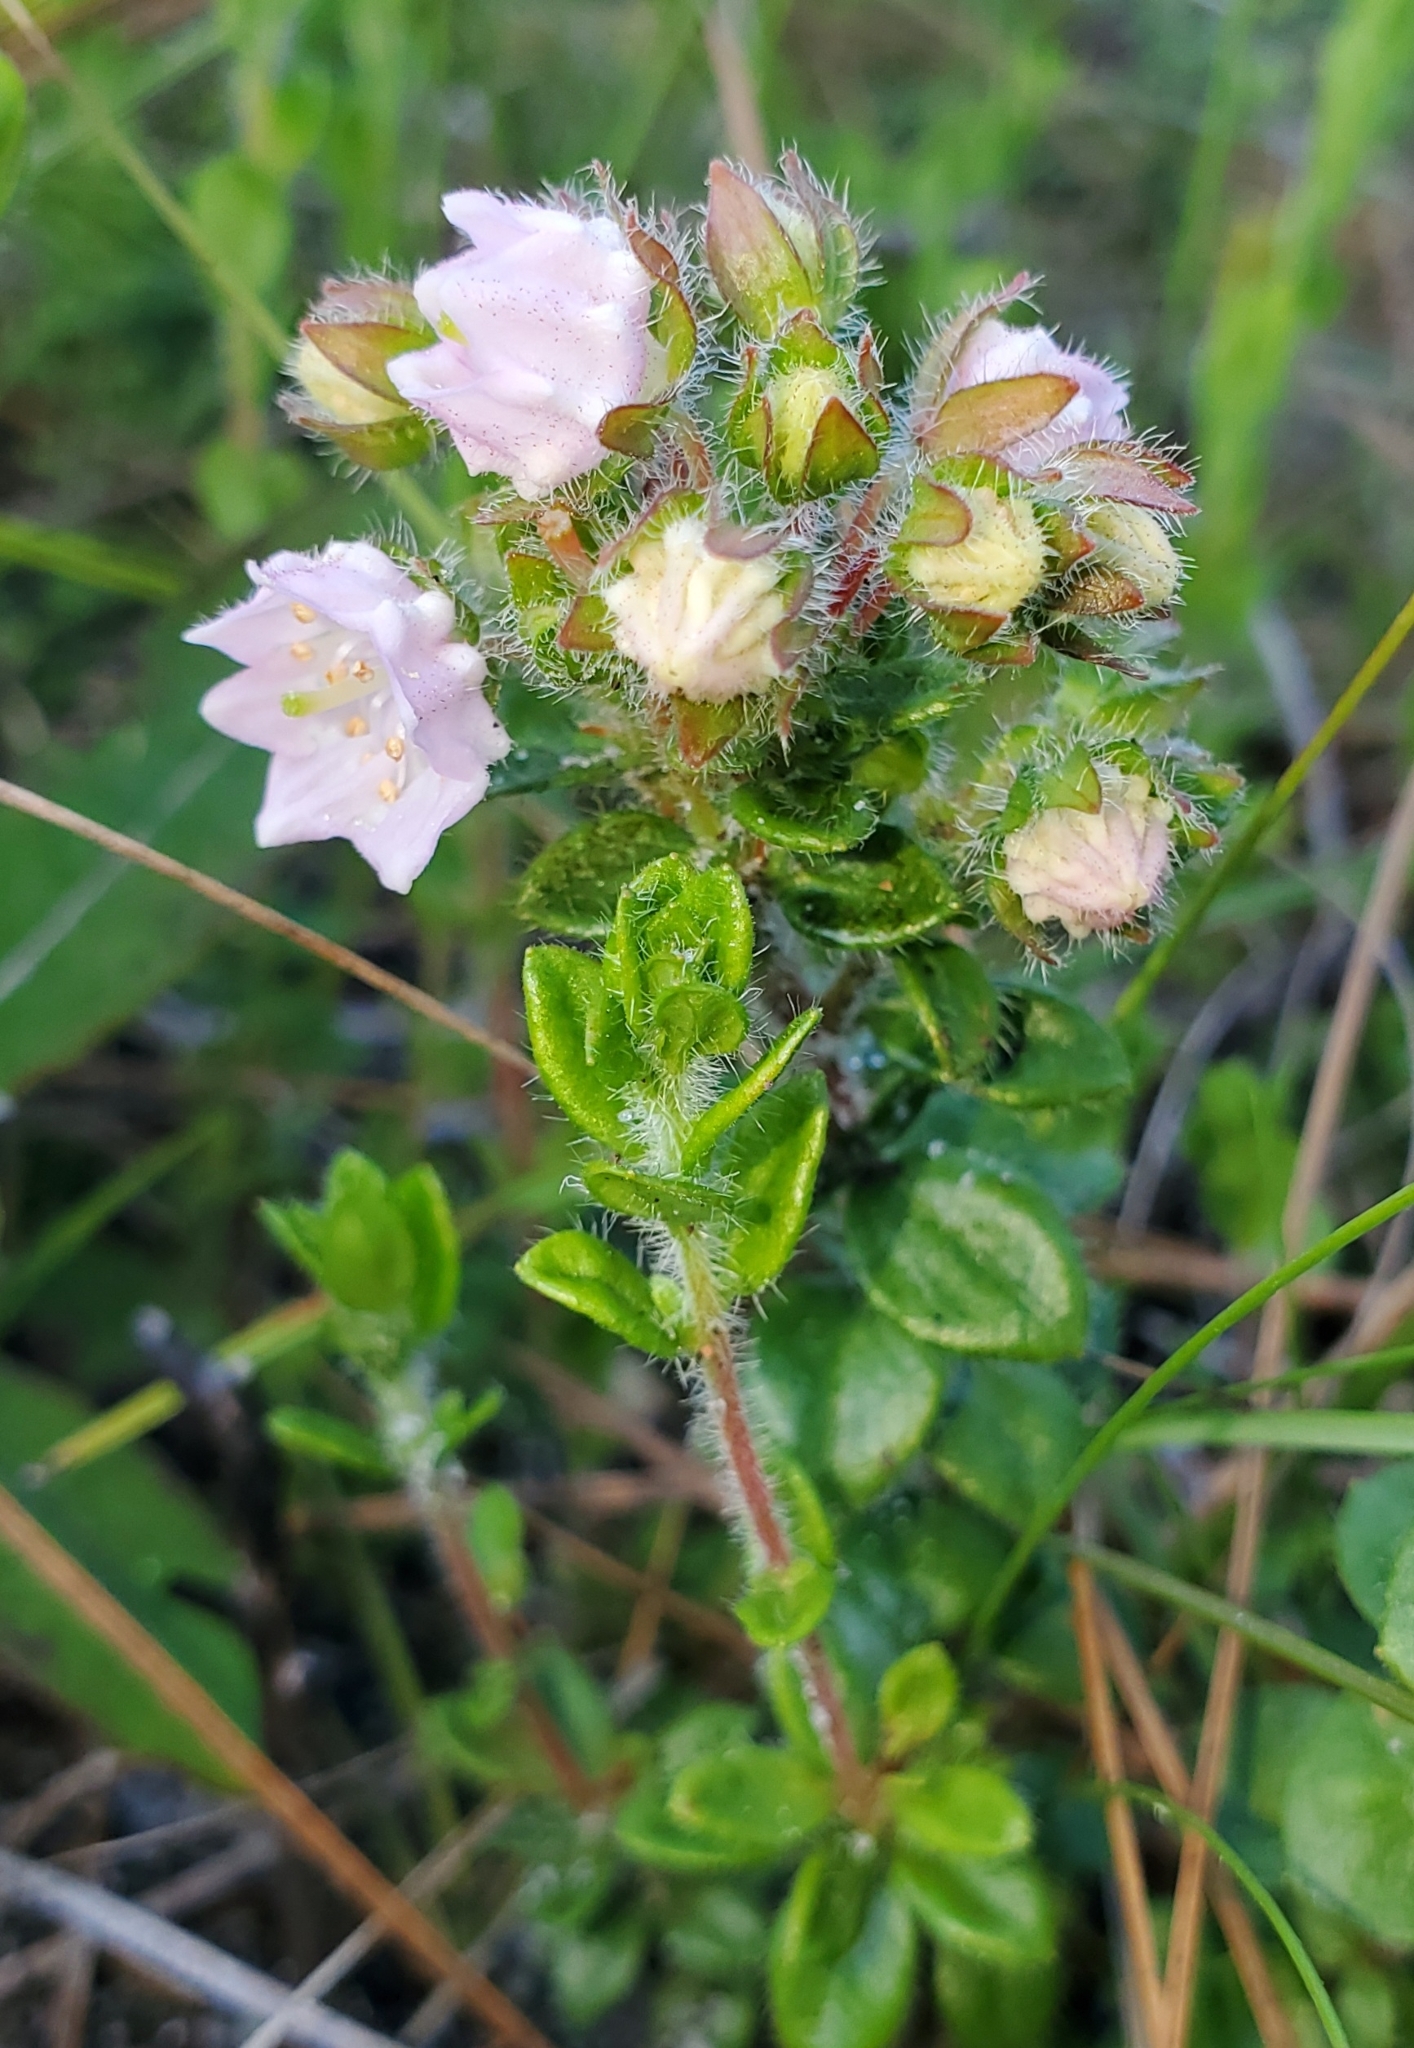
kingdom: Plantae
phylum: Tracheophyta
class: Magnoliopsida
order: Ericales
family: Ericaceae
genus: Kalmia
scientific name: Kalmia hirsuta
